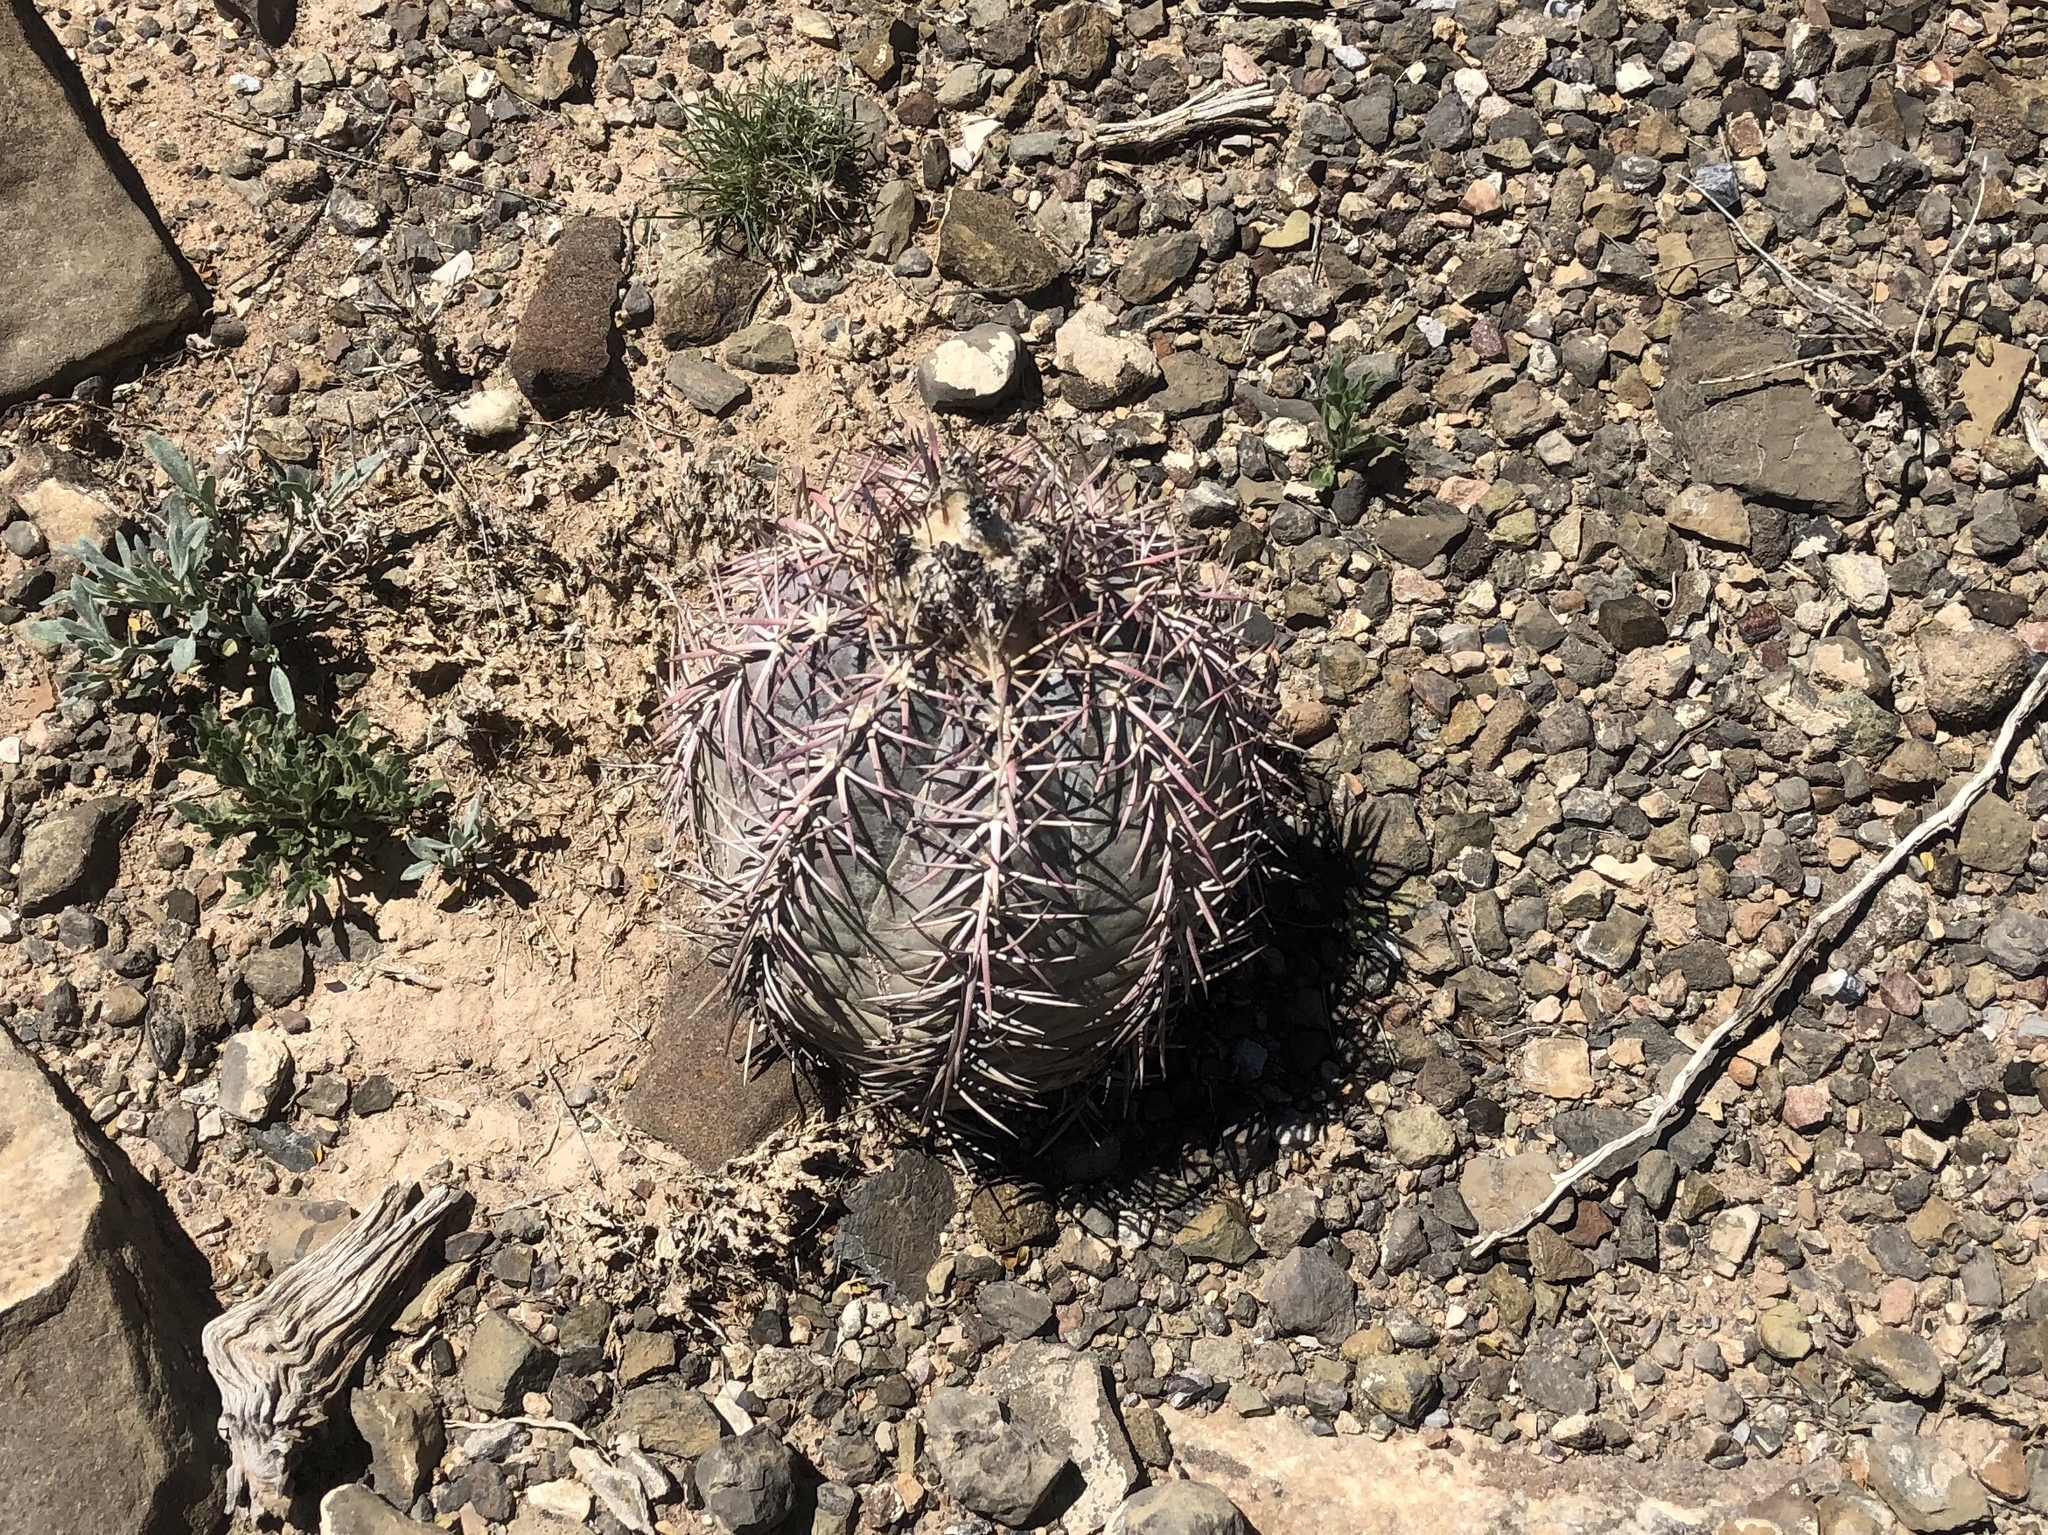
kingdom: Plantae
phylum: Tracheophyta
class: Magnoliopsida
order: Caryophyllales
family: Cactaceae
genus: Echinocactus
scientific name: Echinocactus horizonthalonius
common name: Devilshead
